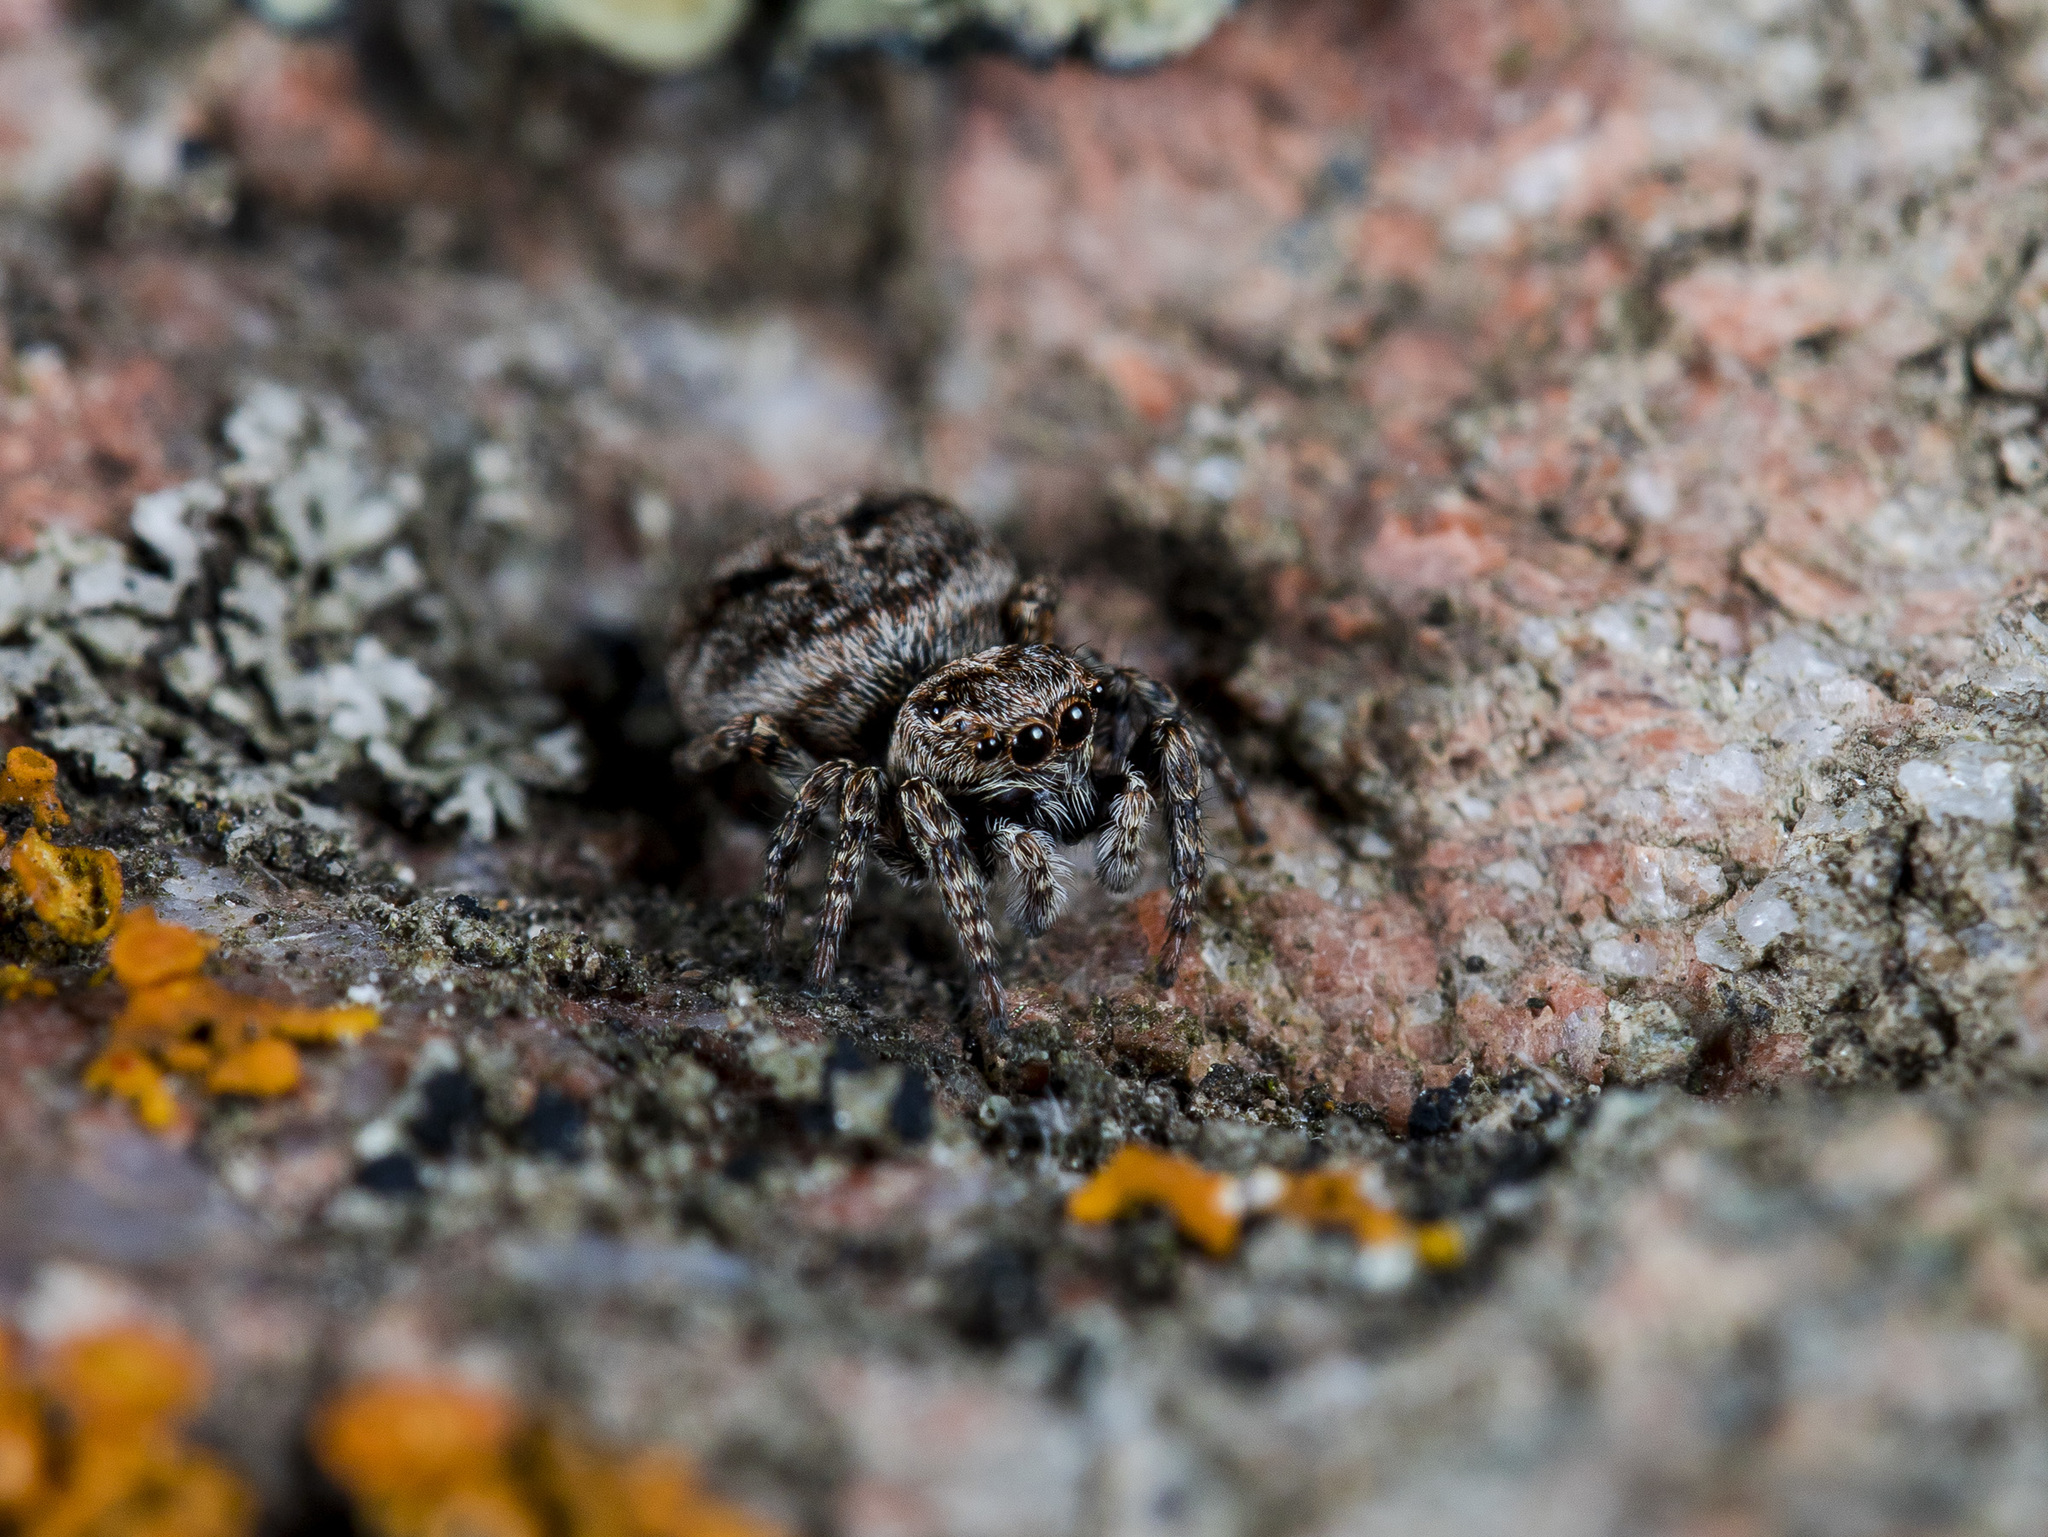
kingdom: Animalia
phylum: Arthropoda
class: Arachnida
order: Araneae
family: Salticidae
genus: Attulus
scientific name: Attulus monstrabilis
